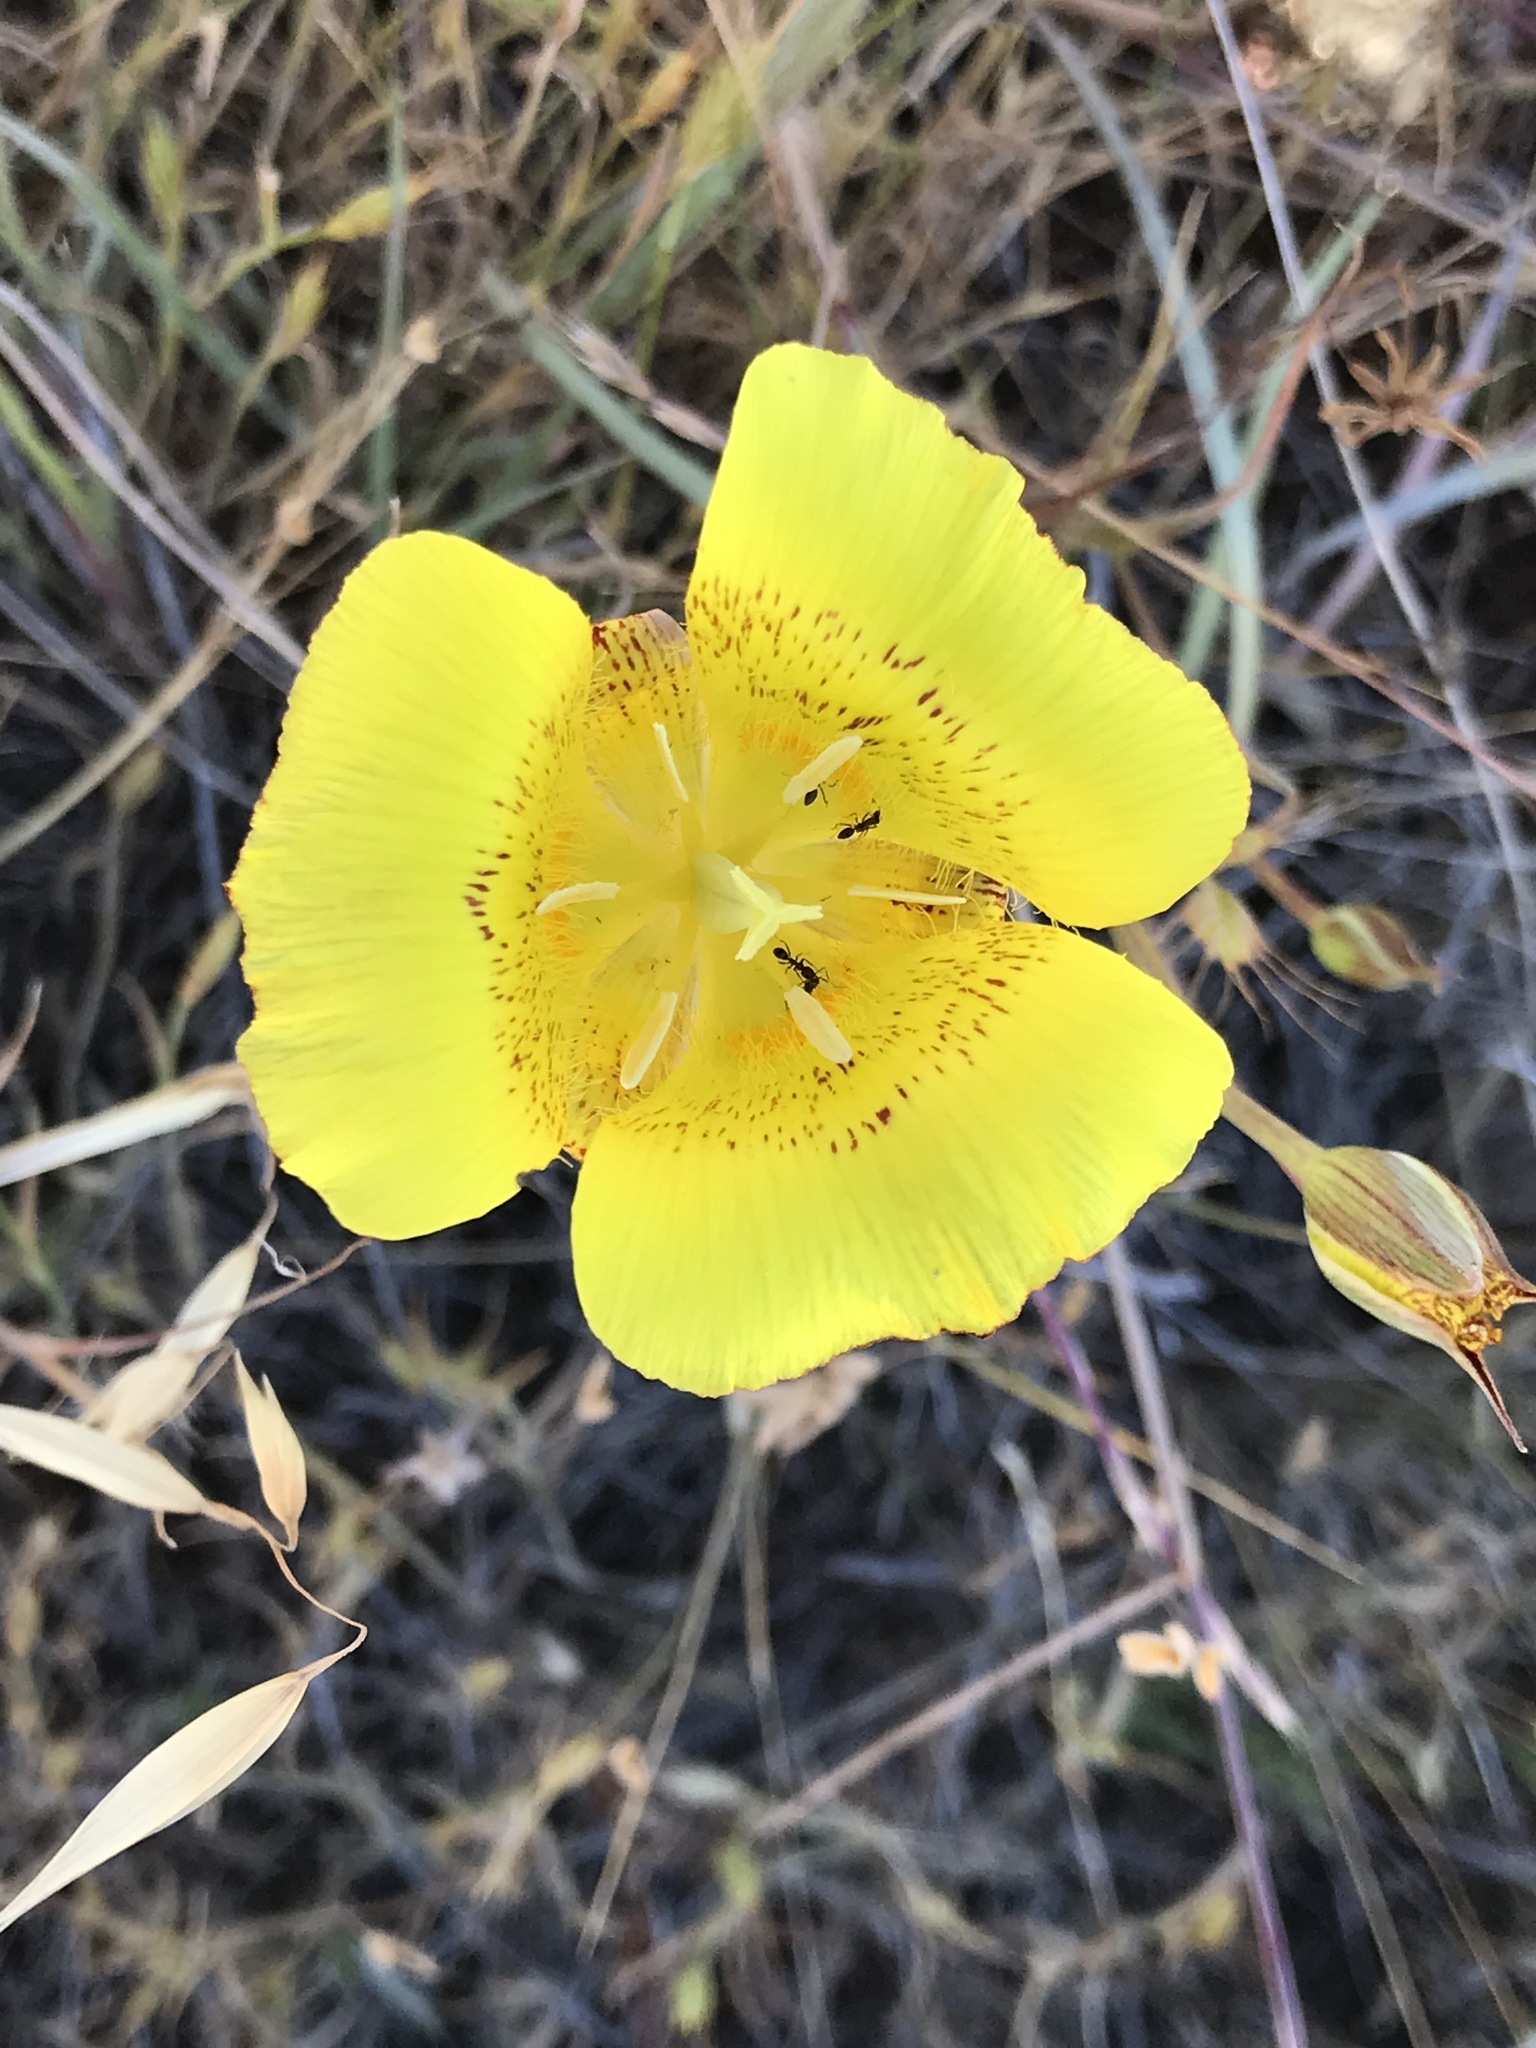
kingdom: Plantae
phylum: Tracheophyta
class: Liliopsida
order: Liliales
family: Liliaceae
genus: Calochortus
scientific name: Calochortus luteus
